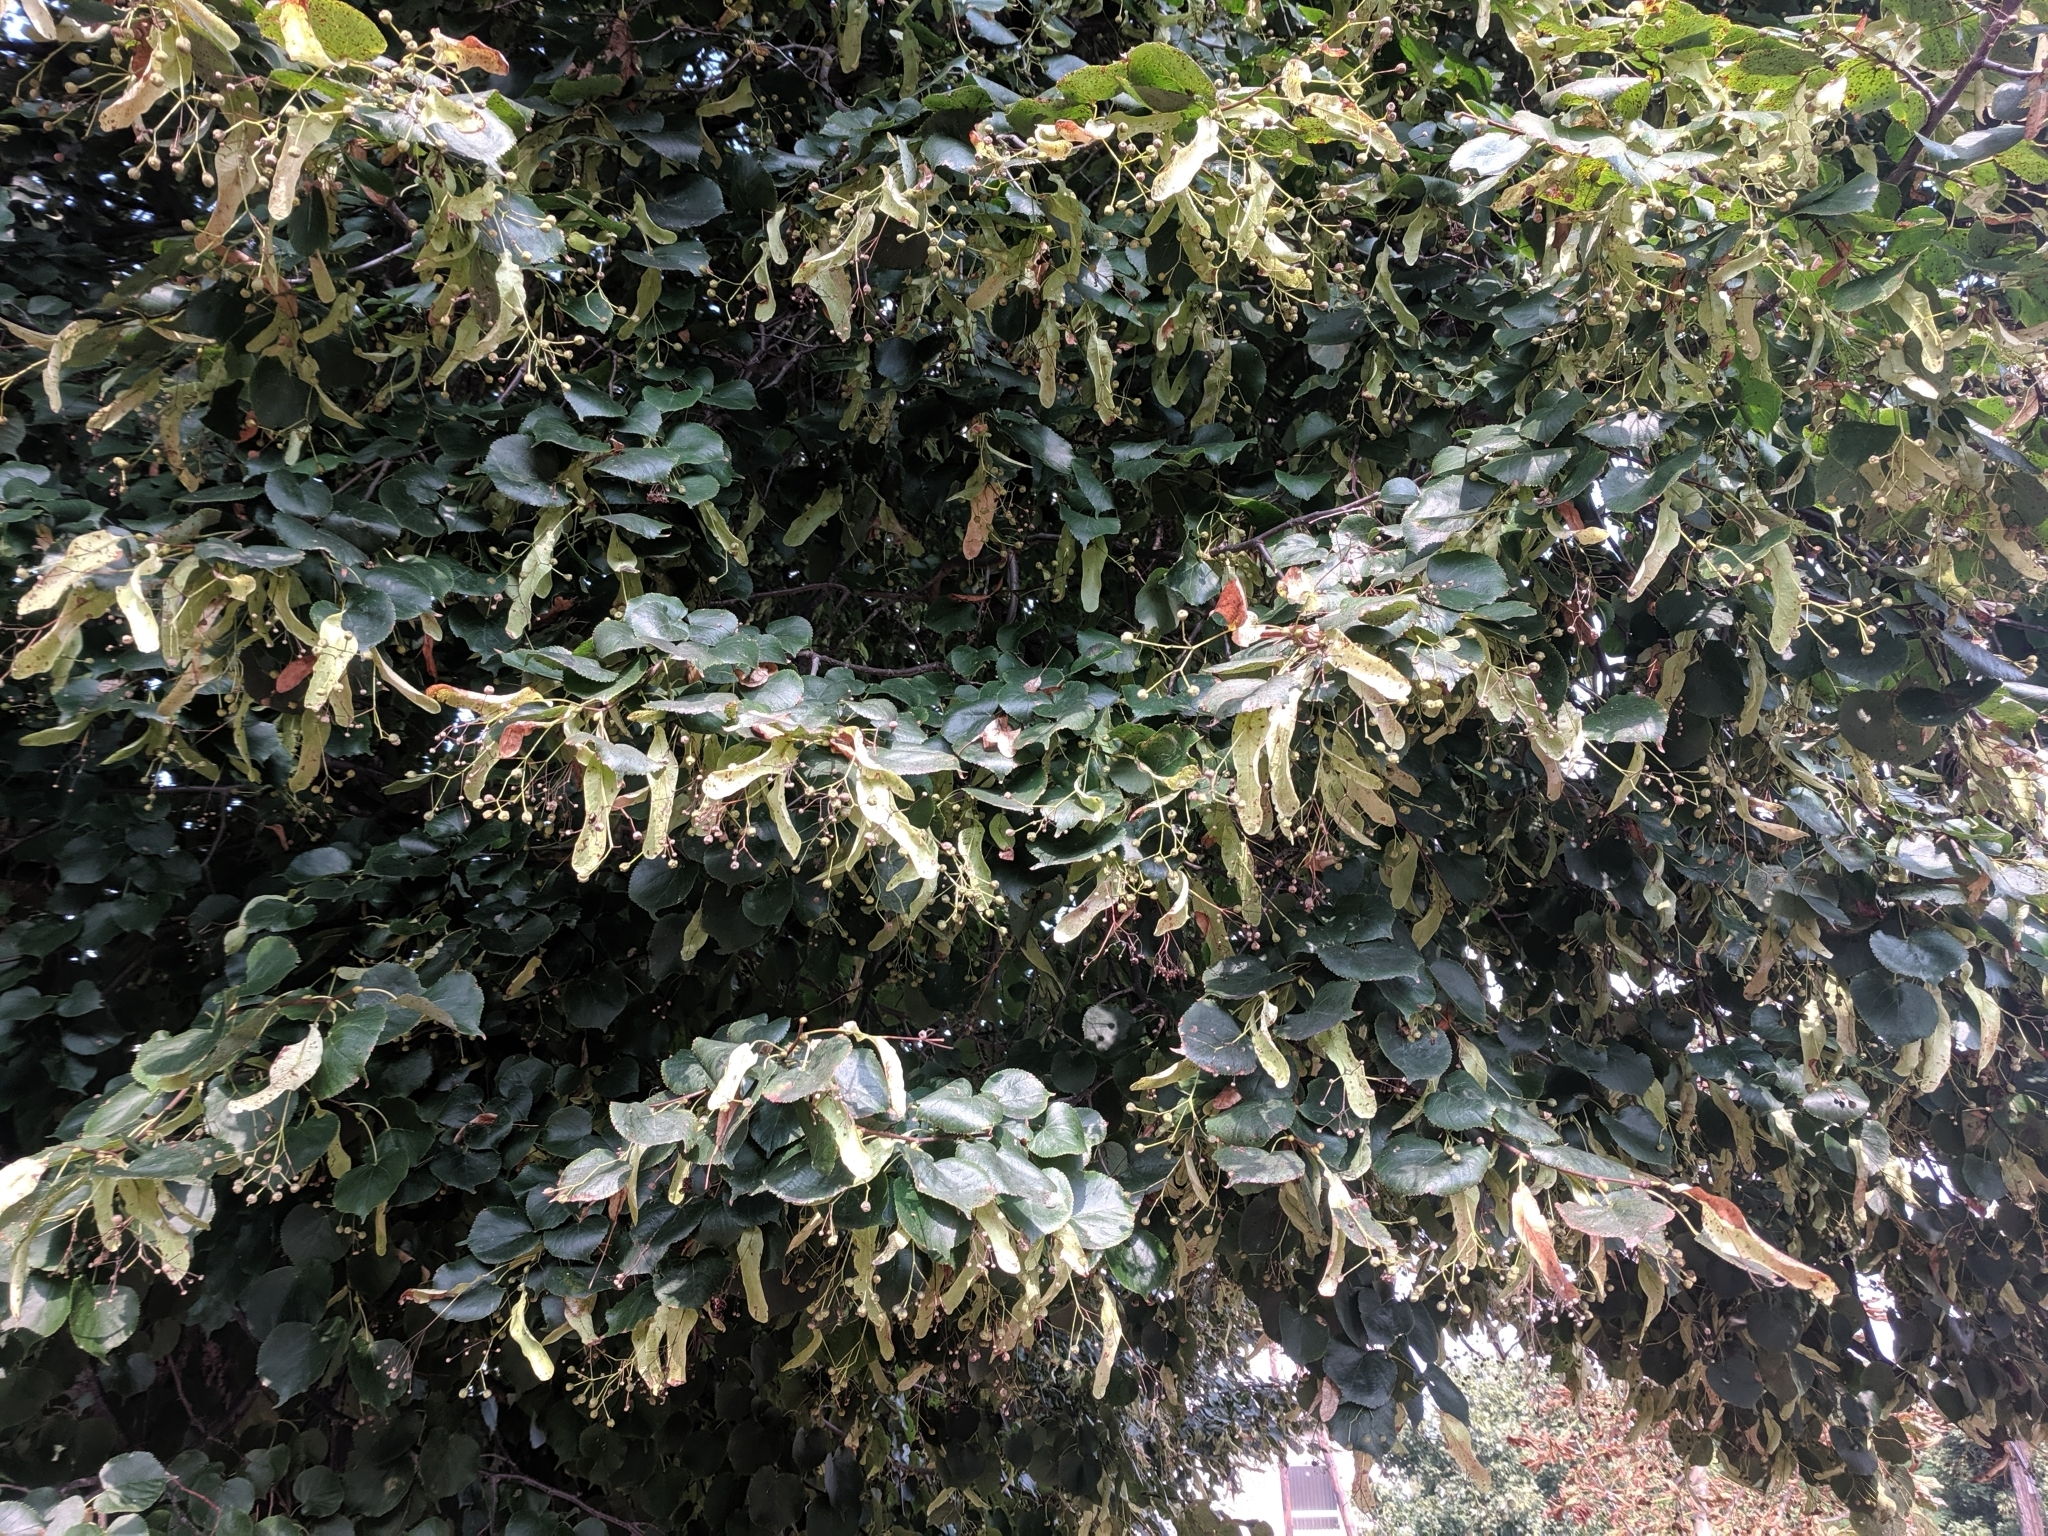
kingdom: Plantae
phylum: Tracheophyta
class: Magnoliopsida
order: Malvales
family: Malvaceae
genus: Tilia
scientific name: Tilia cordata
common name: Small-leaved lime
